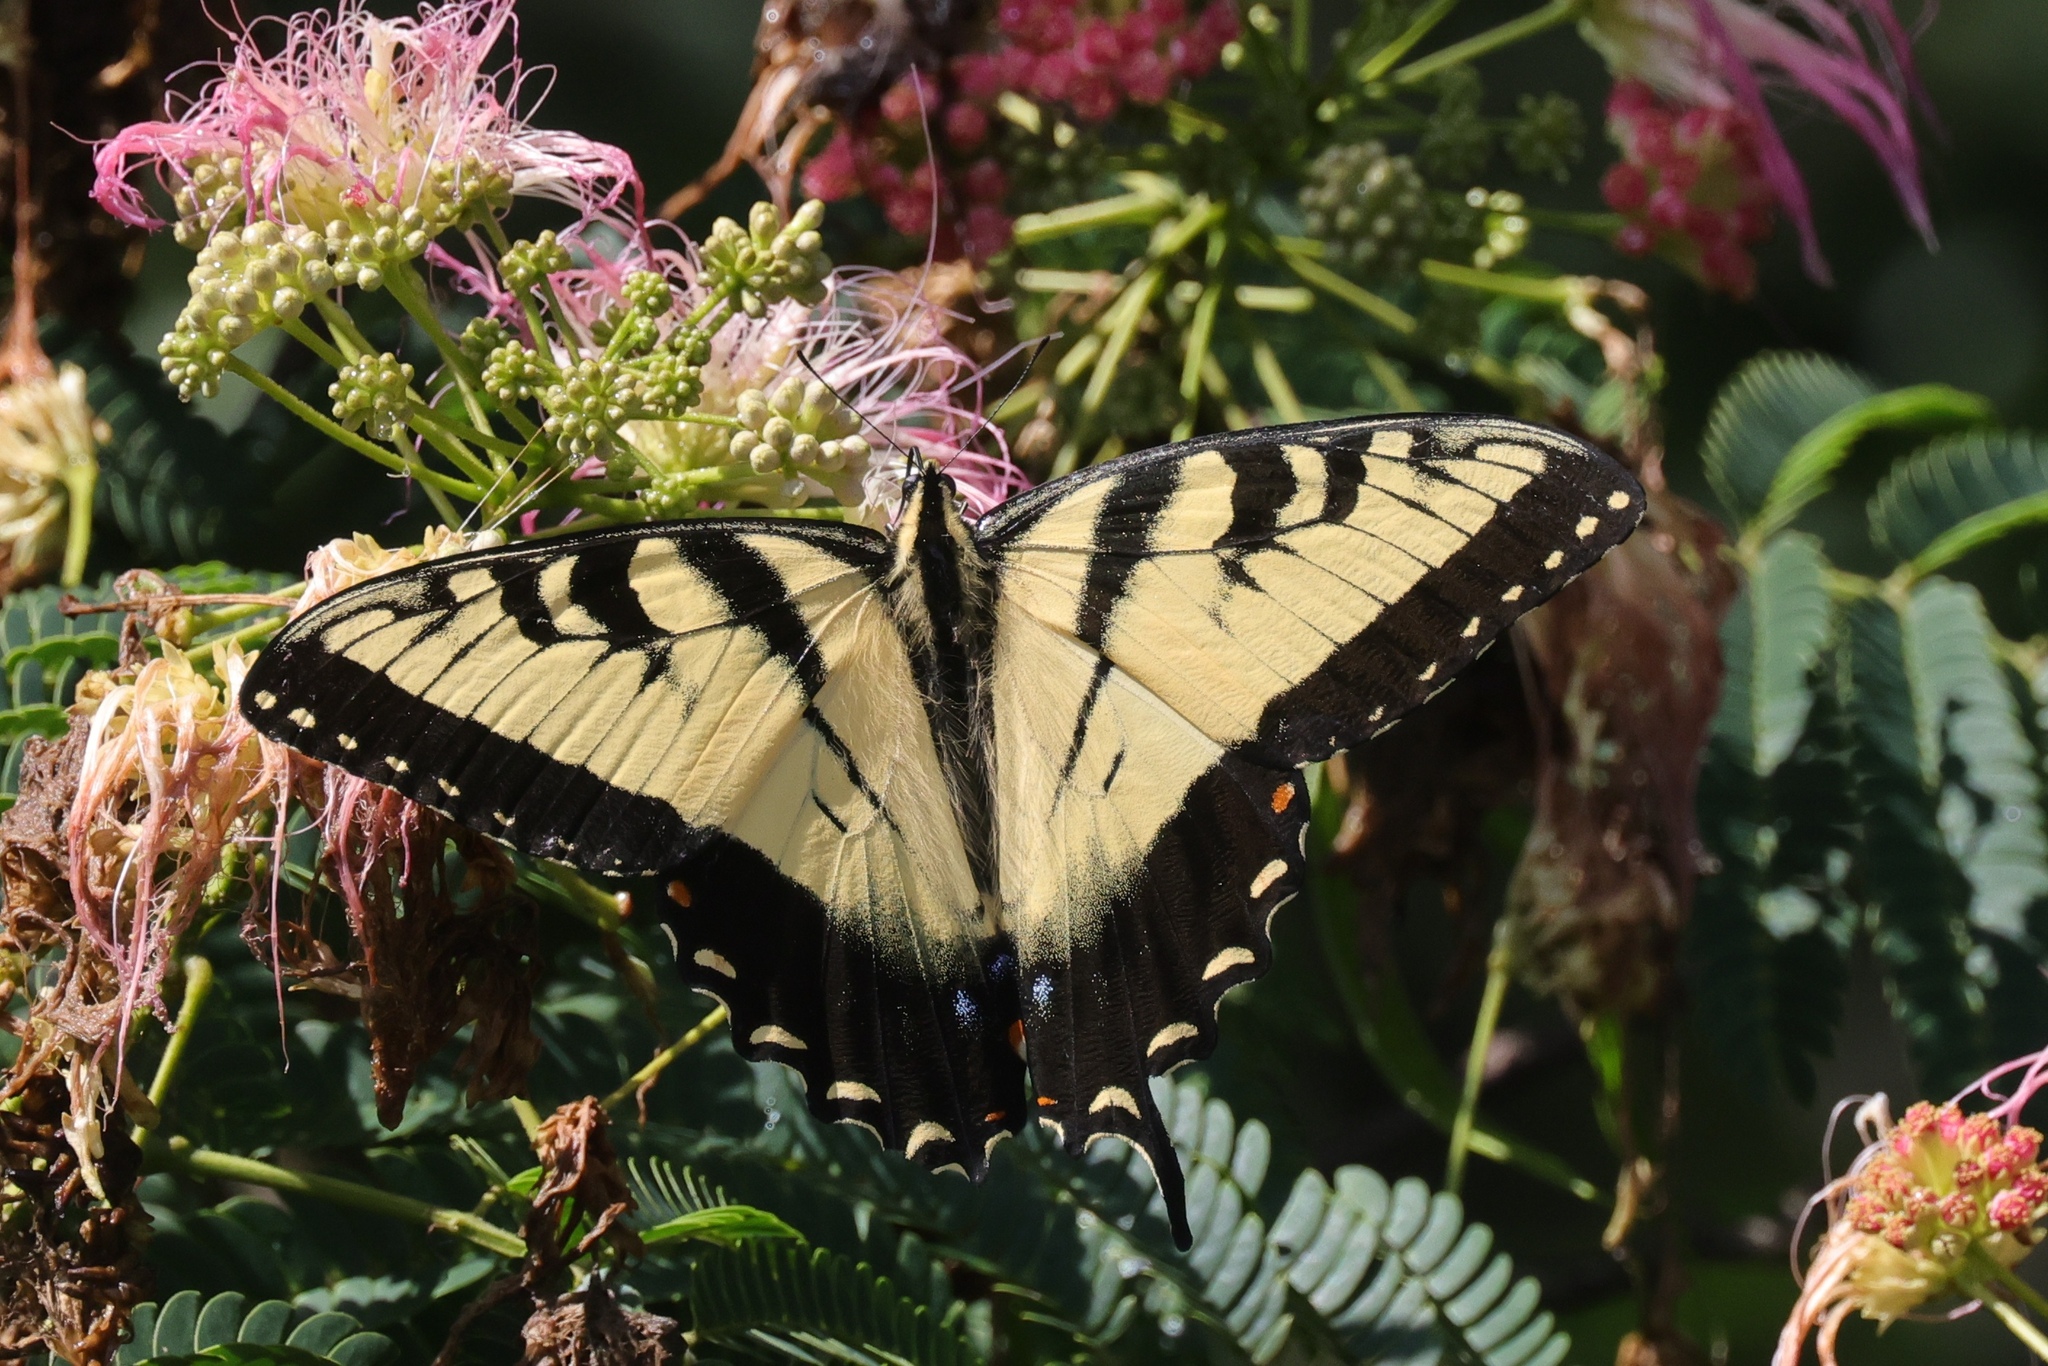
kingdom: Animalia
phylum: Arthropoda
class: Insecta
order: Lepidoptera
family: Papilionidae
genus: Papilio
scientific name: Papilio glaucus
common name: Tiger swallowtail
